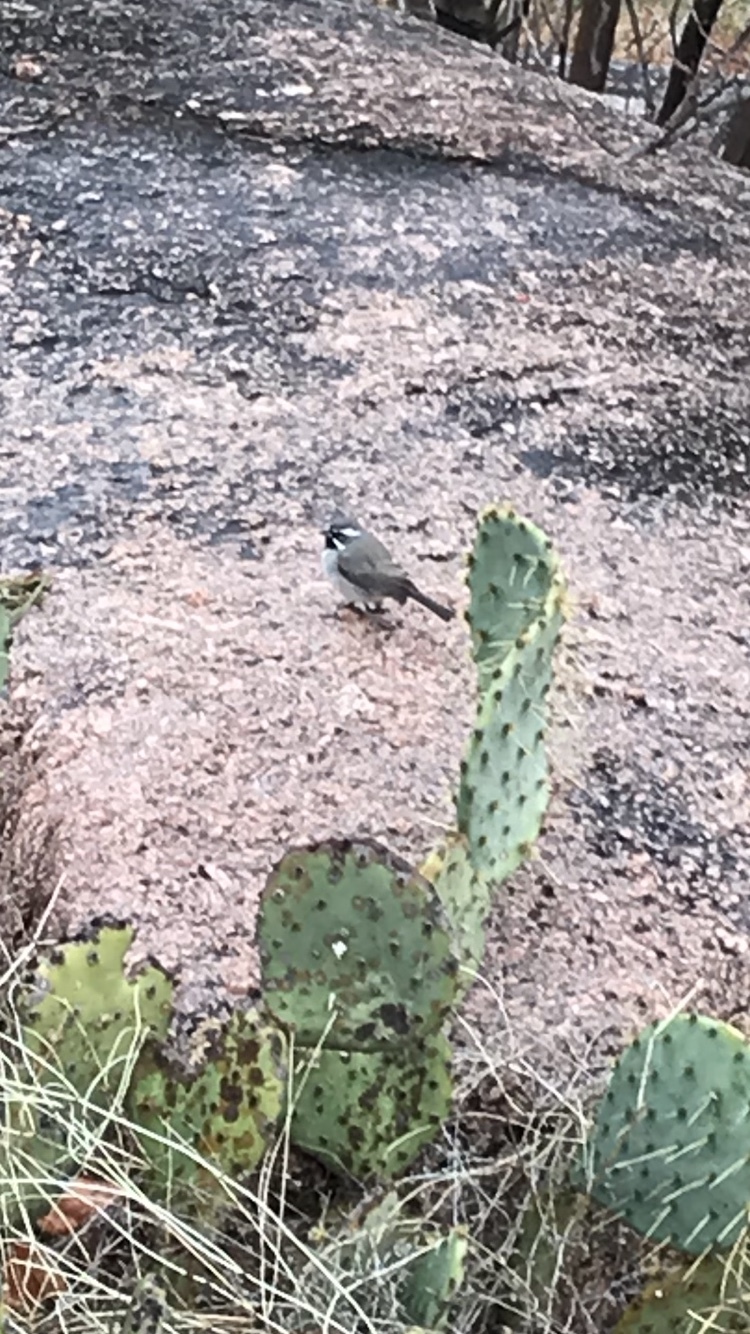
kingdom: Animalia
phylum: Chordata
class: Aves
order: Passeriformes
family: Passerellidae
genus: Amphispiza
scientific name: Amphispiza bilineata
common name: Black-throated sparrow
